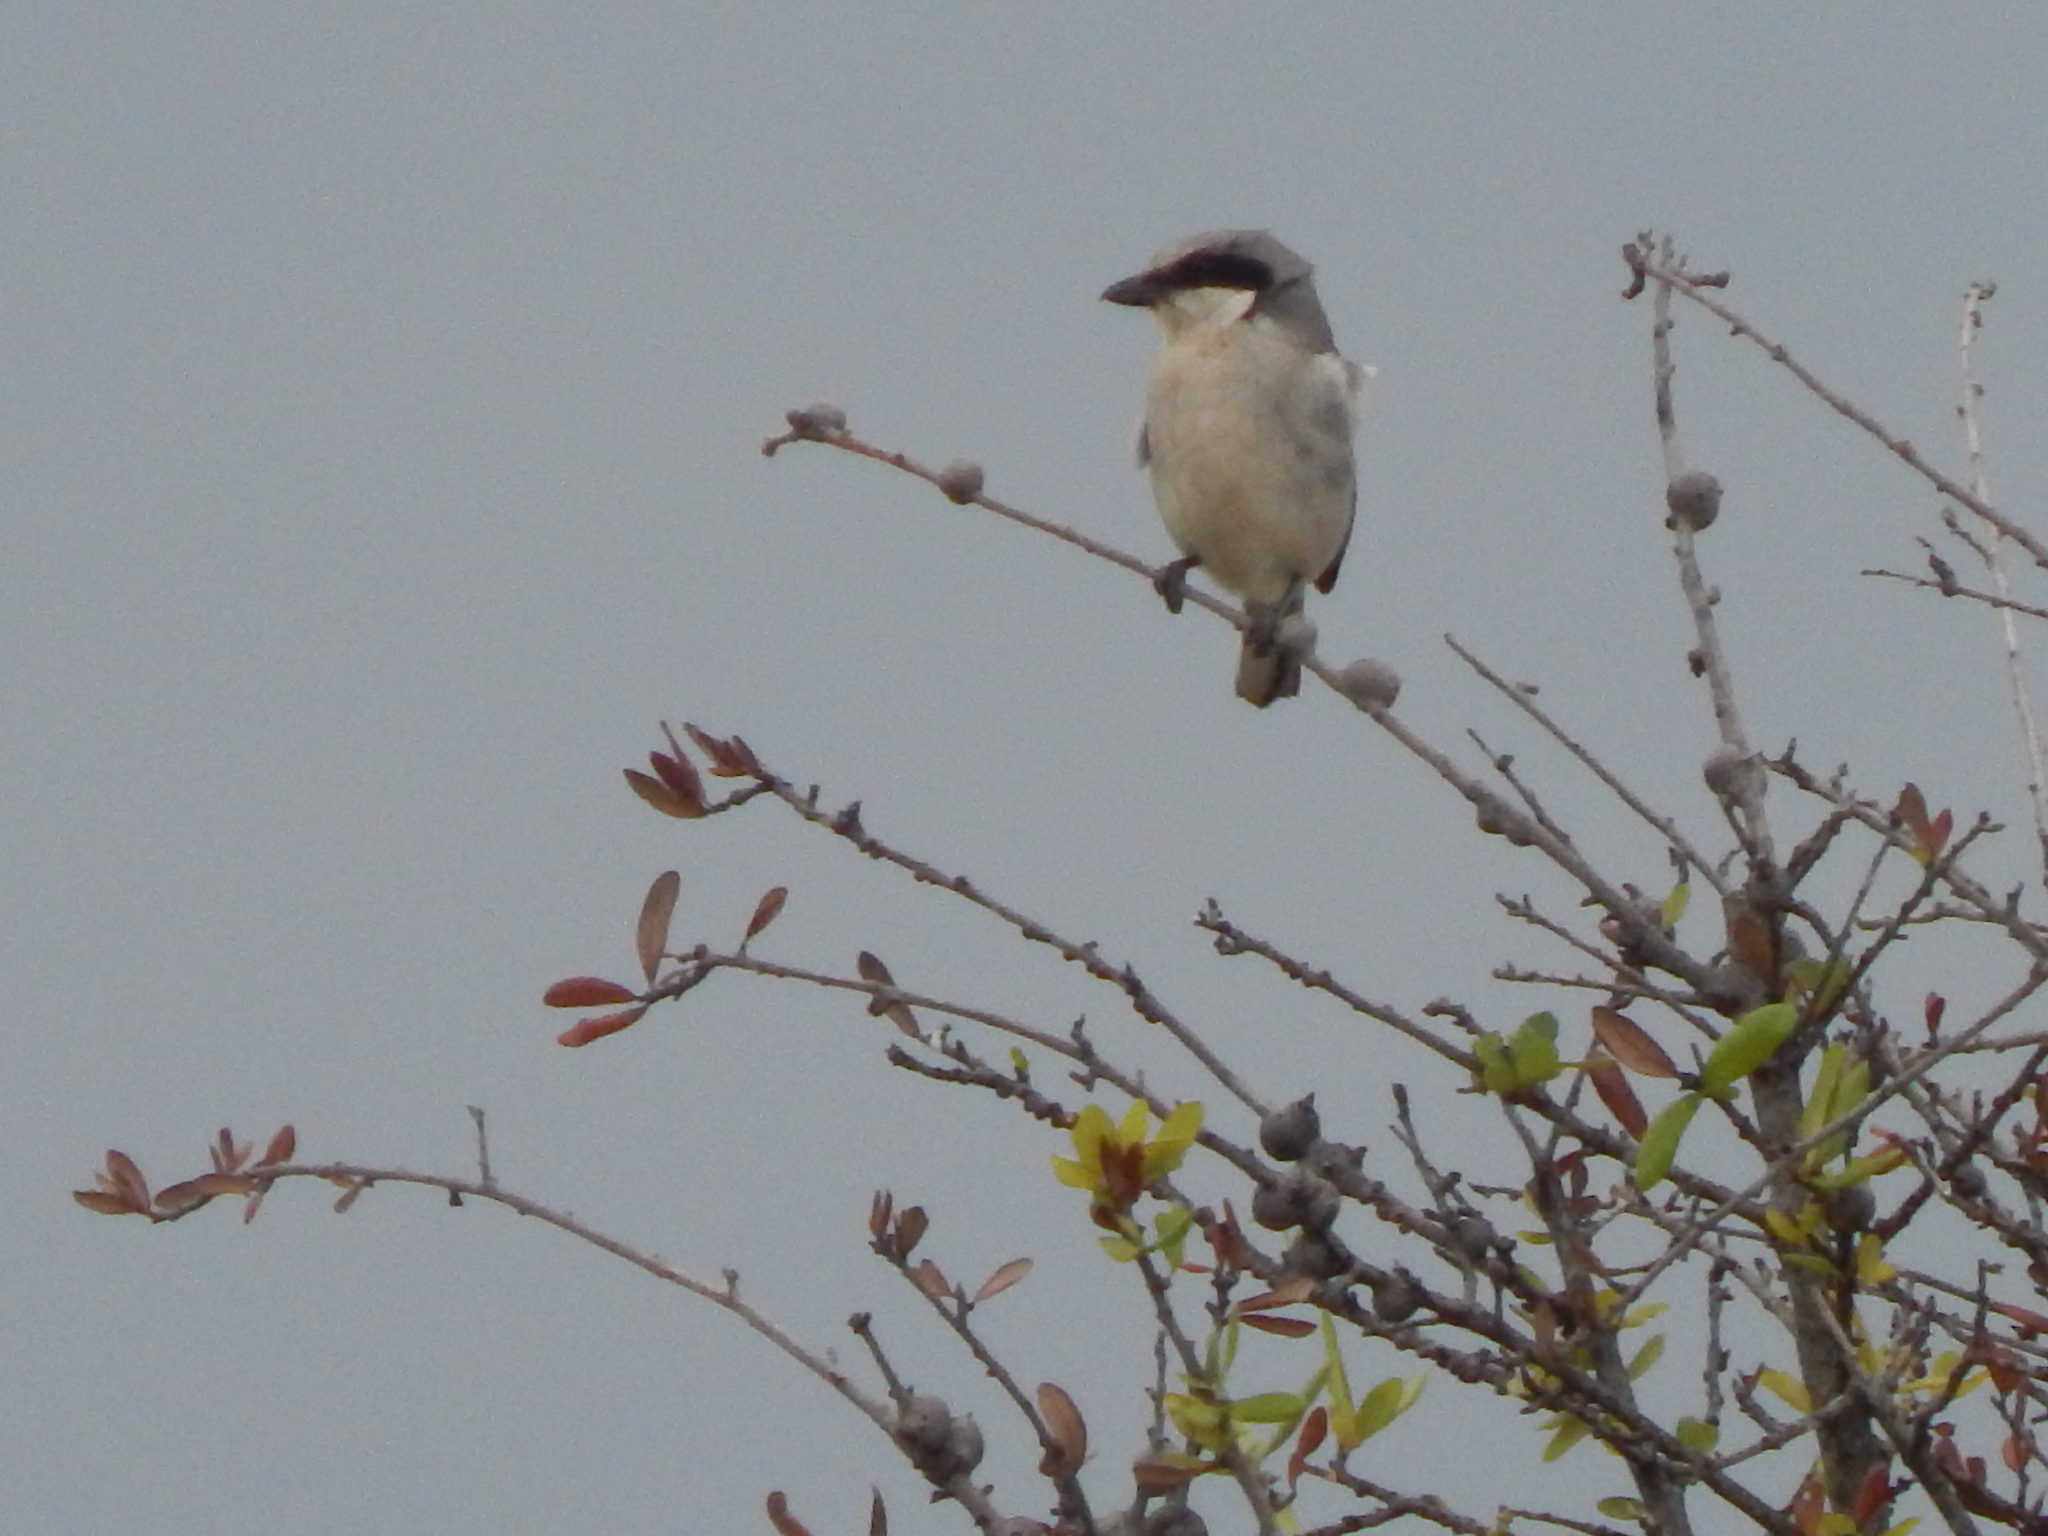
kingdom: Animalia
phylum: Chordata
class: Aves
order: Passeriformes
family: Laniidae
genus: Lanius
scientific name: Lanius ludovicianus
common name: Loggerhead shrike
